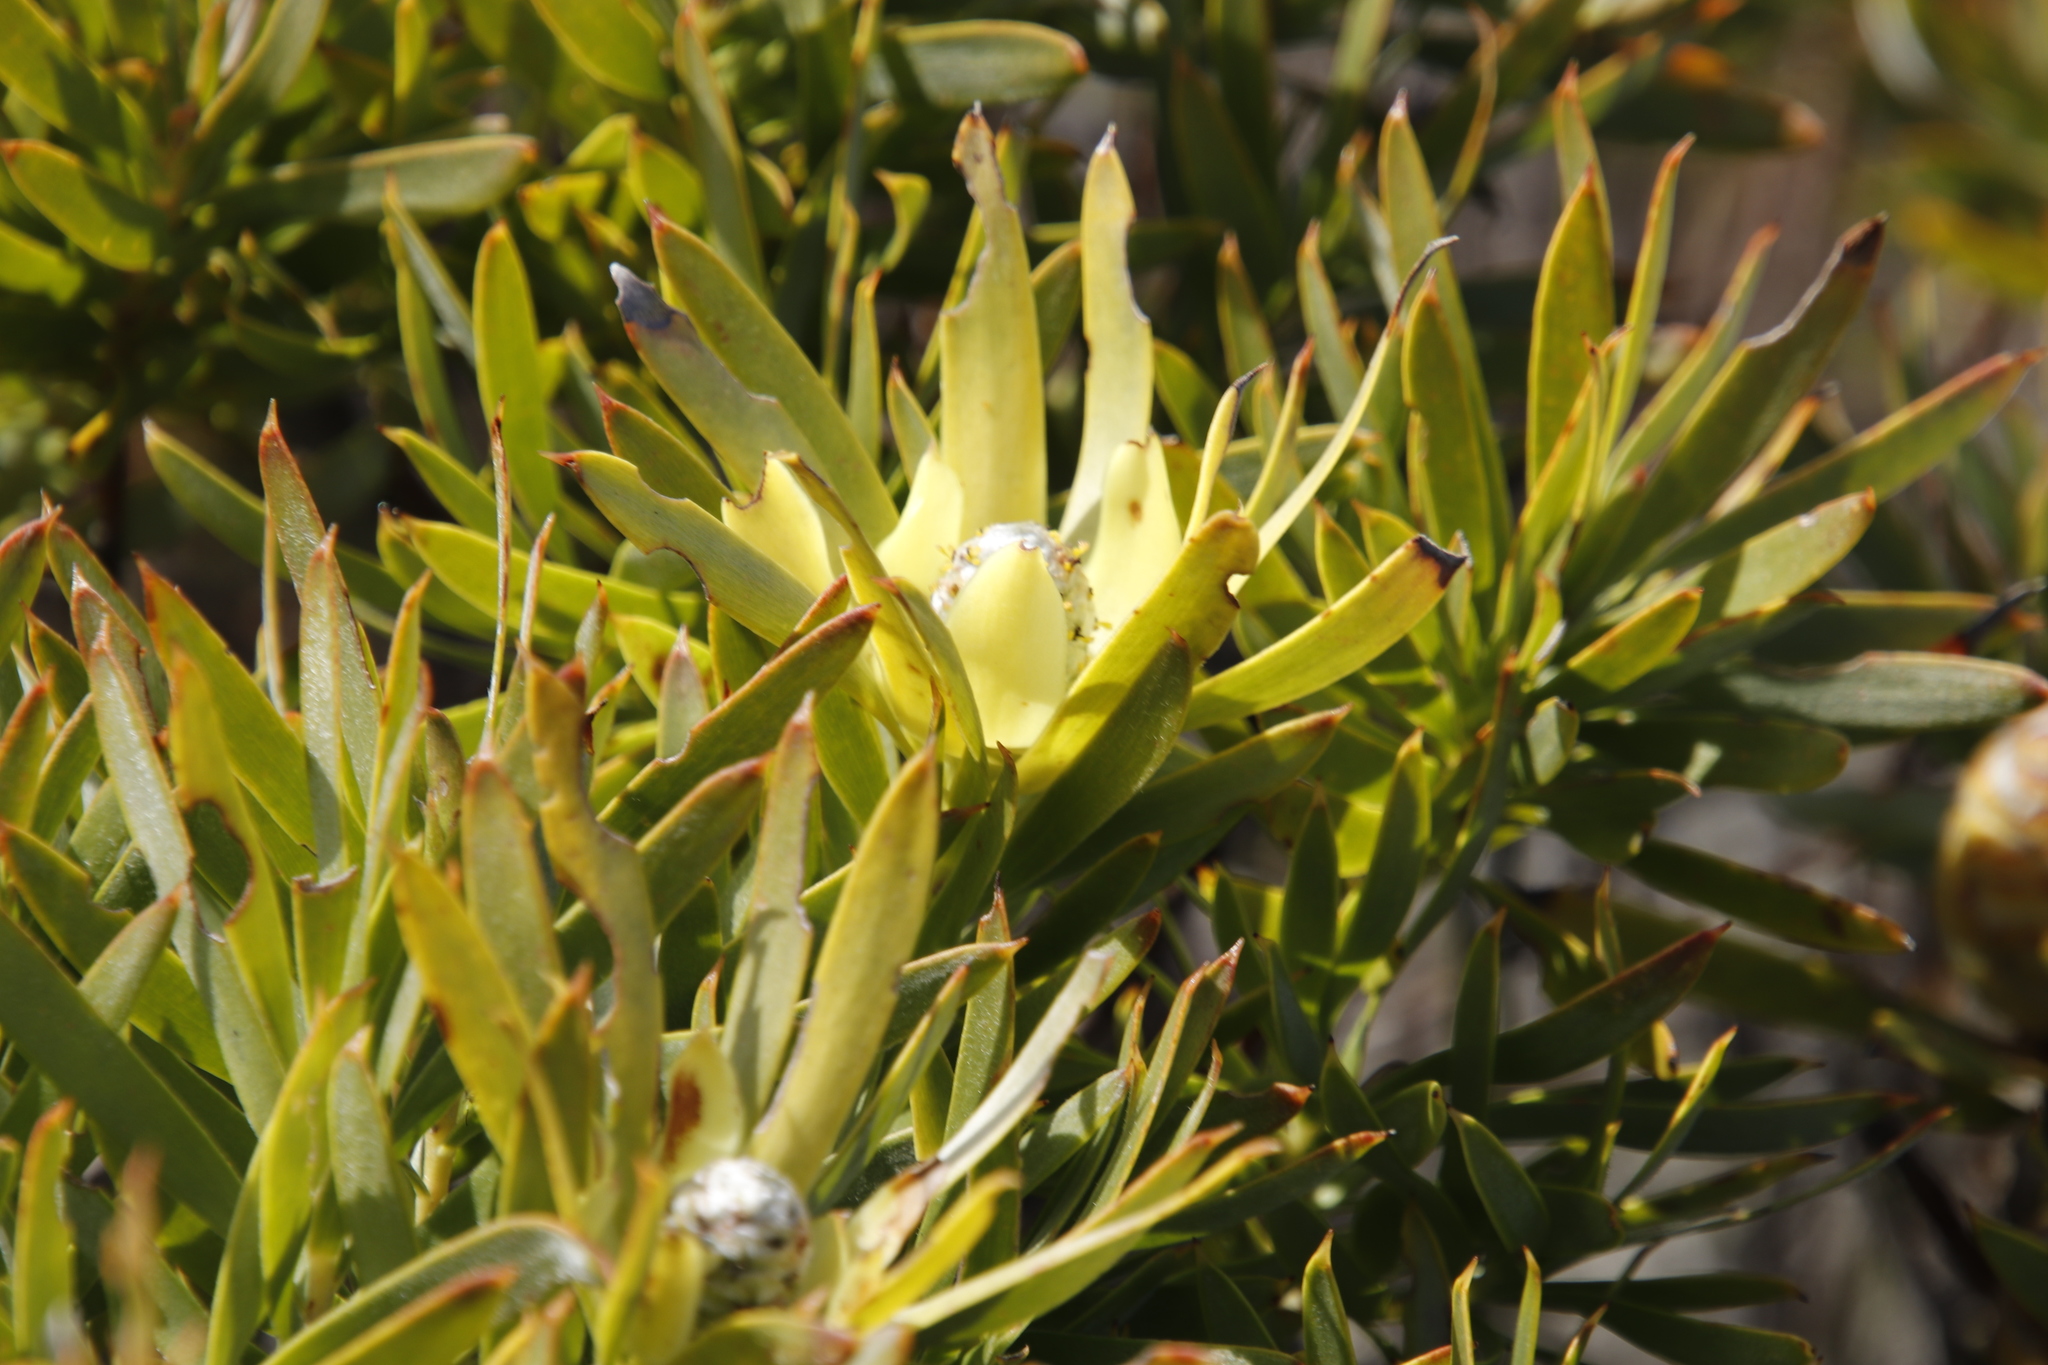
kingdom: Plantae
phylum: Tracheophyta
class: Magnoliopsida
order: Proteales
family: Proteaceae
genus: Leucadendron
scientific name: Leucadendron
